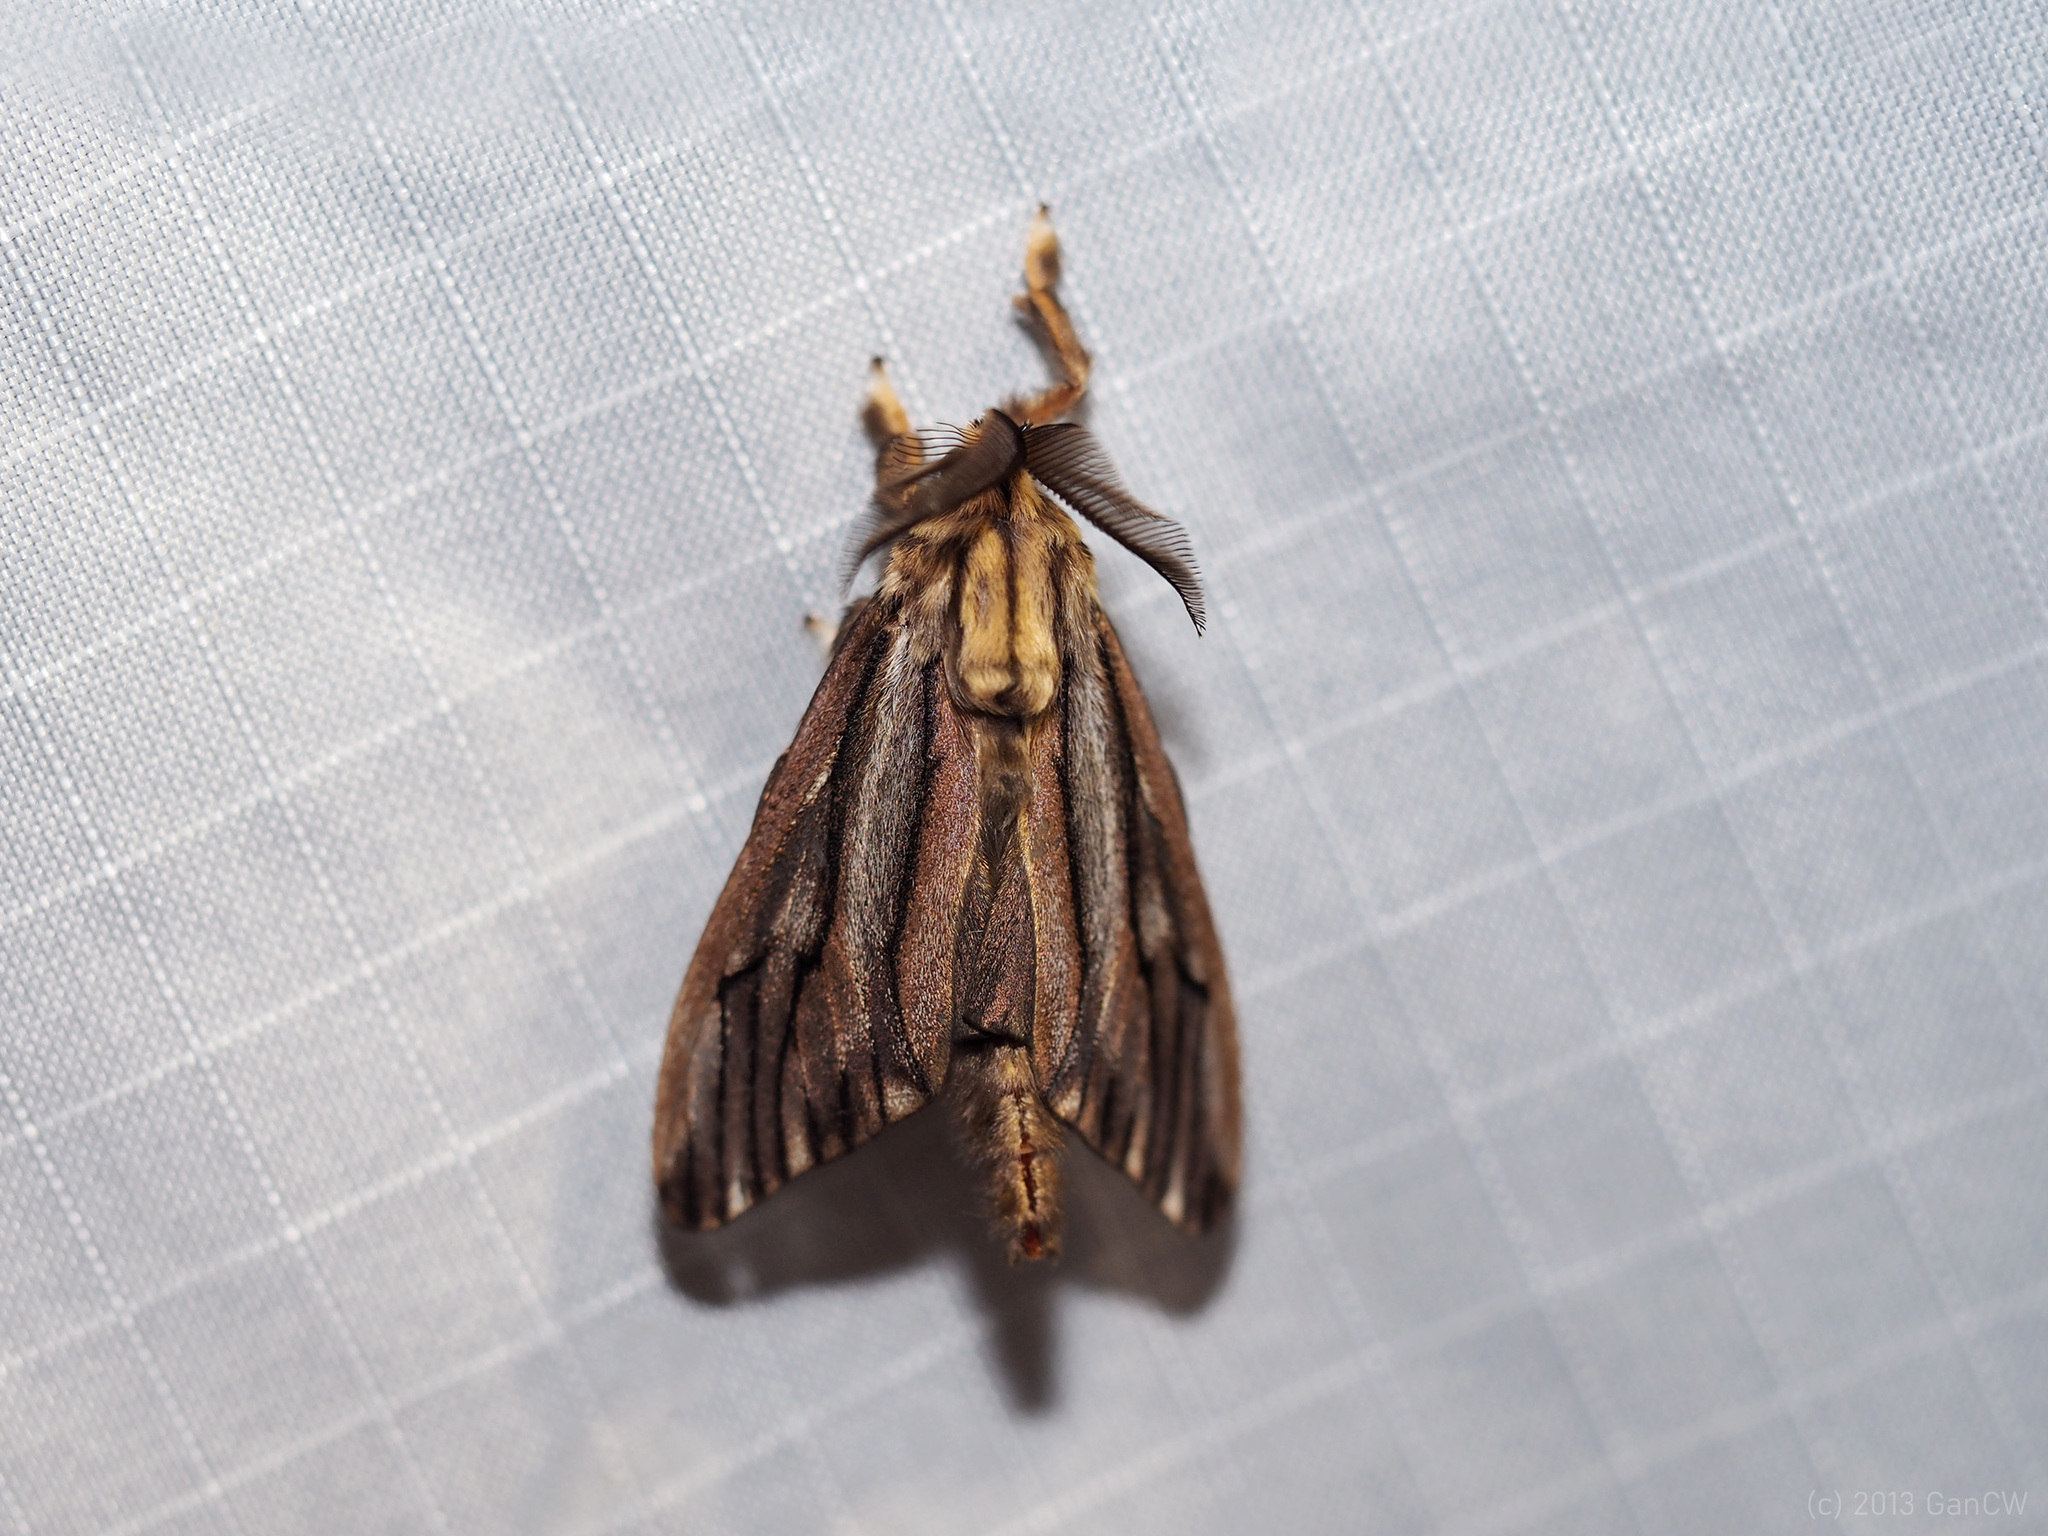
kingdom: Animalia
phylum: Arthropoda
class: Insecta
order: Lepidoptera
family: Psychidae
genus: Eumeta
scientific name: Eumeta variegatus
